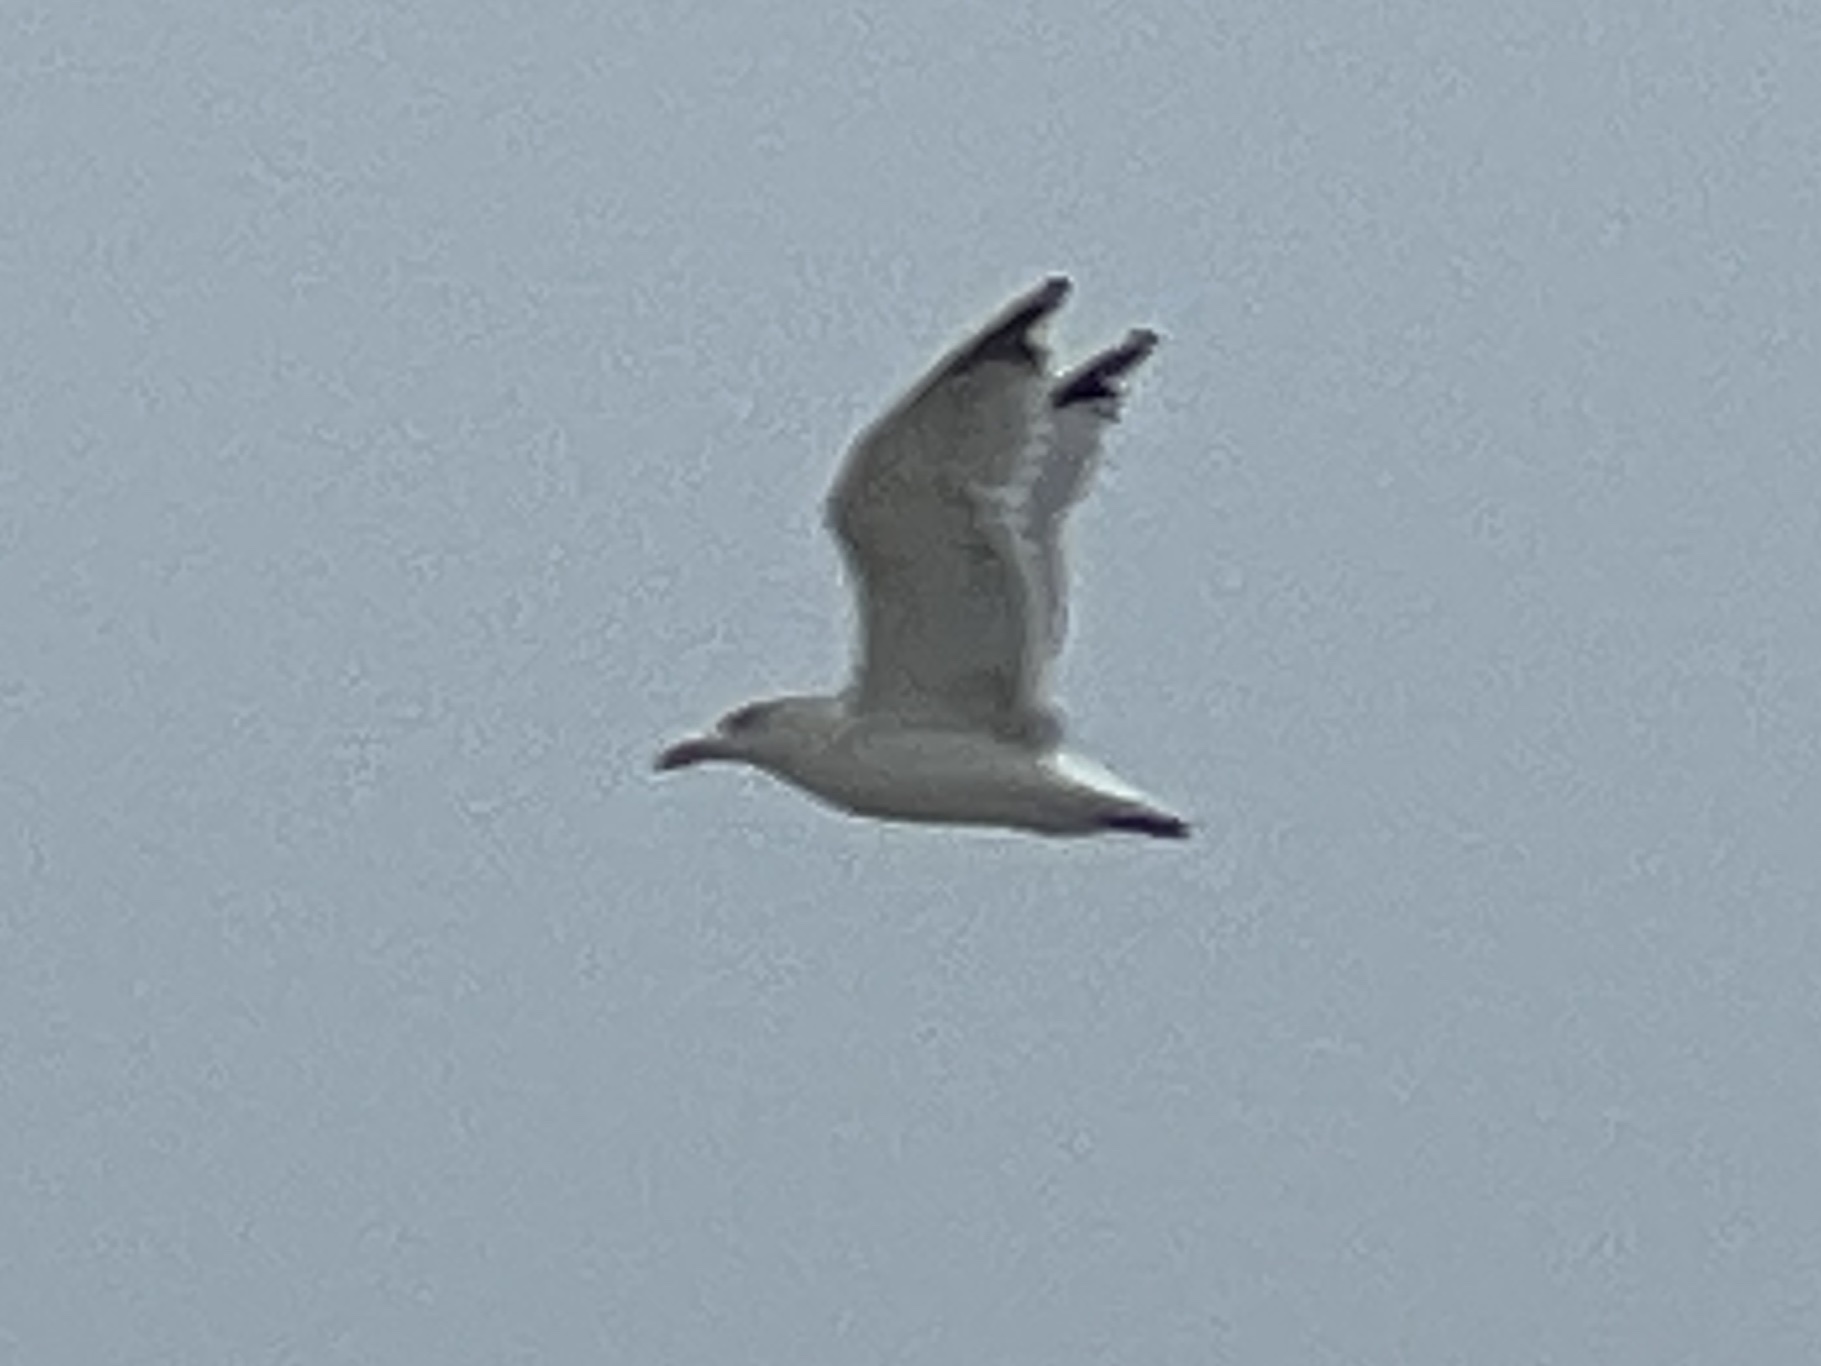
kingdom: Animalia
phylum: Chordata
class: Aves
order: Charadriiformes
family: Laridae
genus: Larus
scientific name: Larus delawarensis
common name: Ring-billed gull
